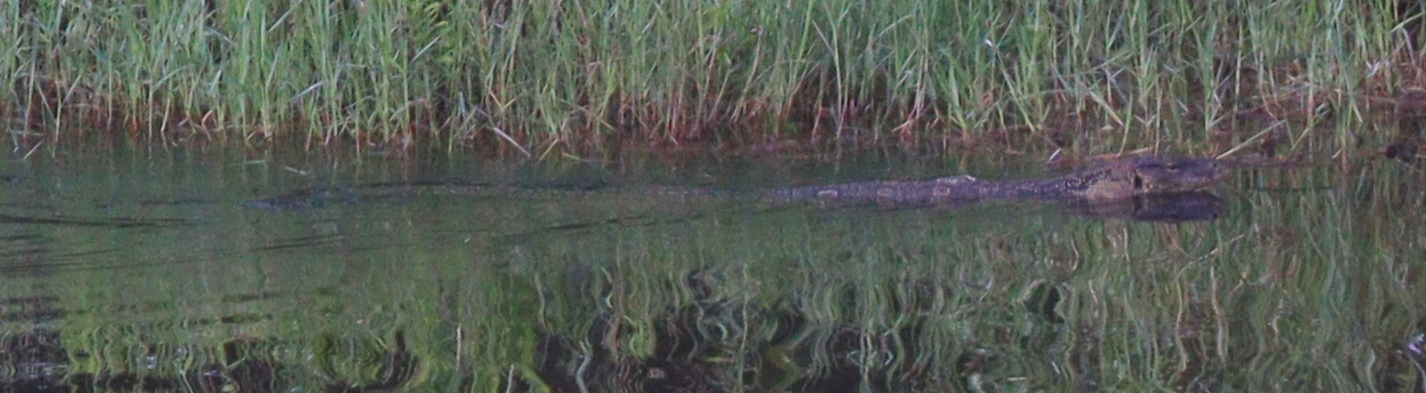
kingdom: Animalia
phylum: Chordata
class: Squamata
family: Varanidae
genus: Varanus
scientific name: Varanus salvator
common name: Common water monitor
